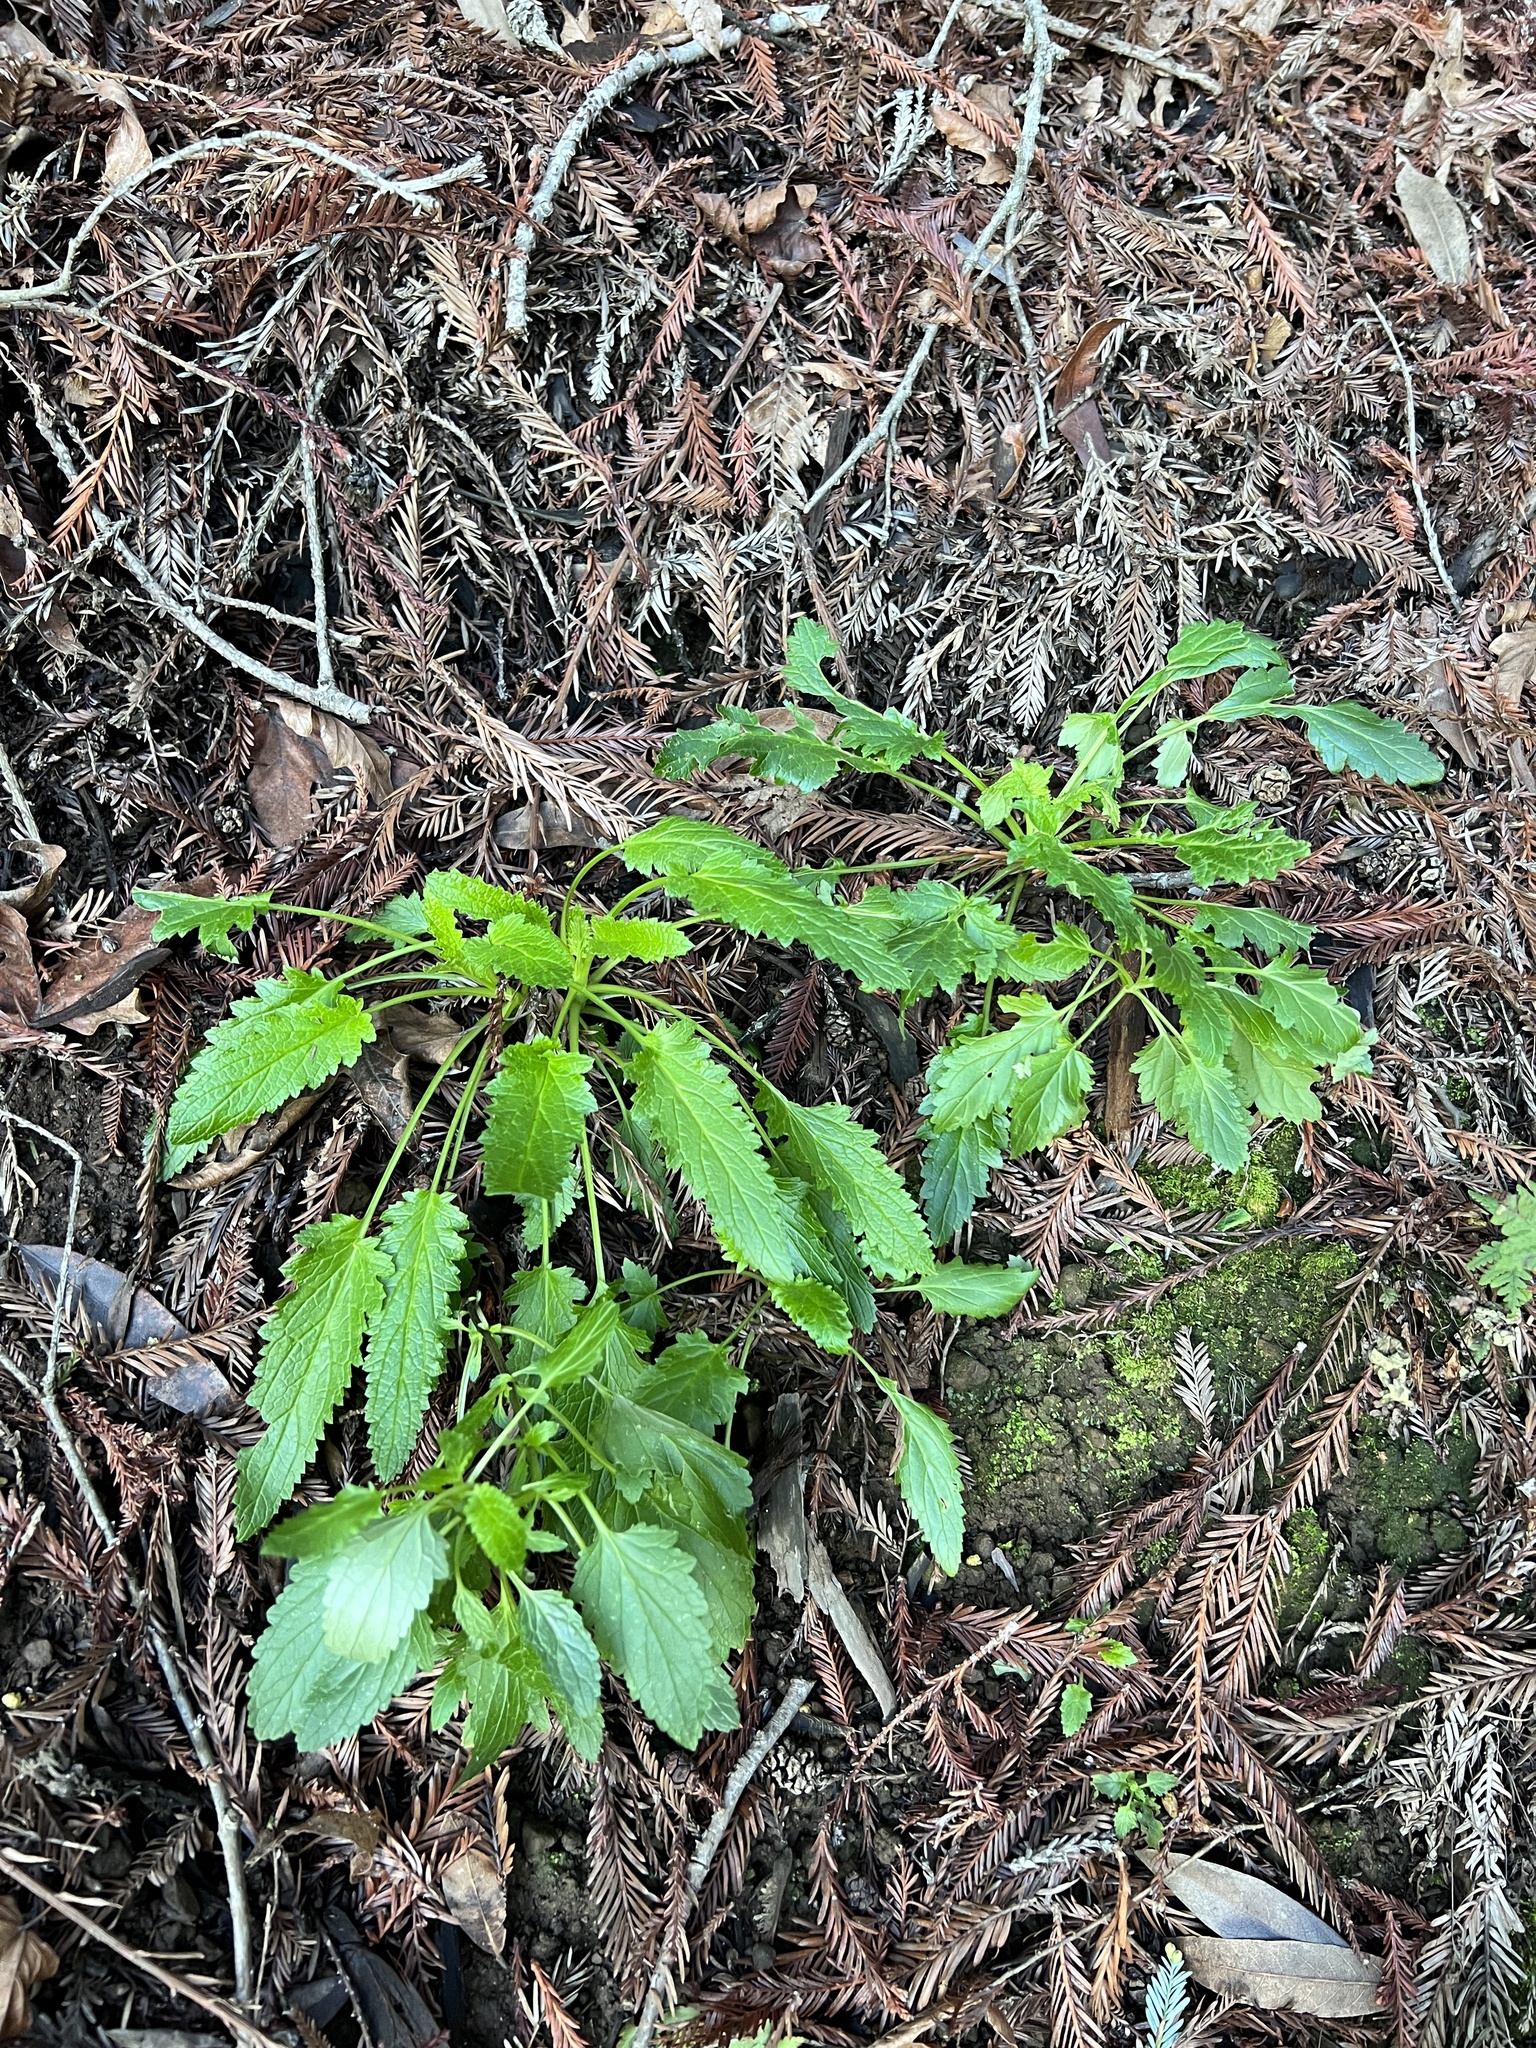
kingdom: Plantae
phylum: Tracheophyta
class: Magnoliopsida
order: Lamiales
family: Scrophulariaceae
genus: Scrophularia
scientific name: Scrophularia californica
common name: California figwort
